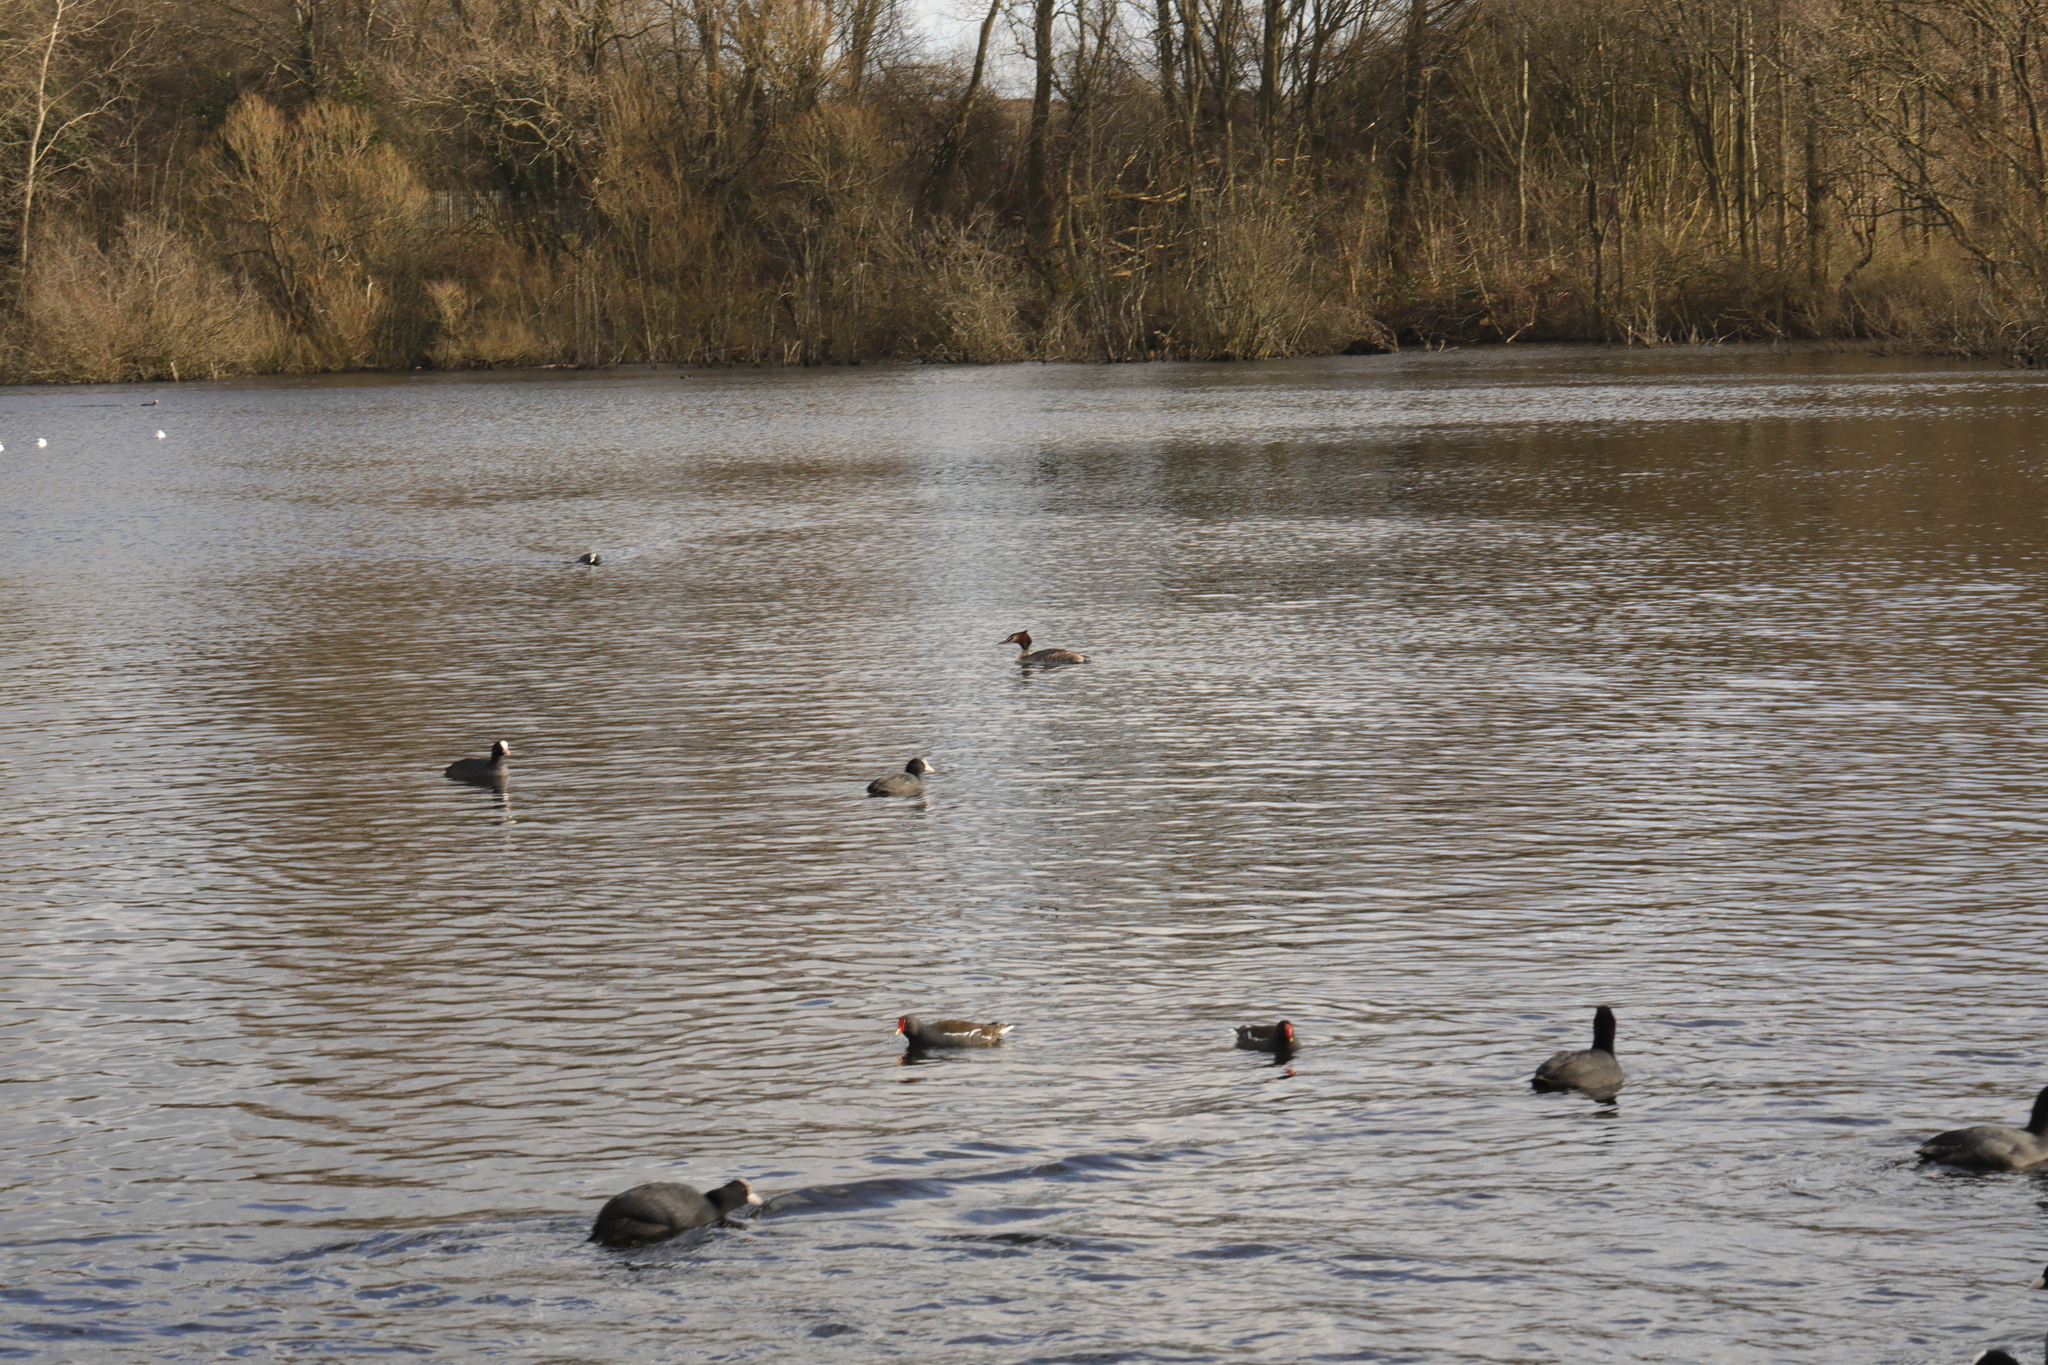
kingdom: Animalia
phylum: Chordata
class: Aves
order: Podicipediformes
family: Podicipedidae
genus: Podiceps
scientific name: Podiceps cristatus
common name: Great crested grebe
